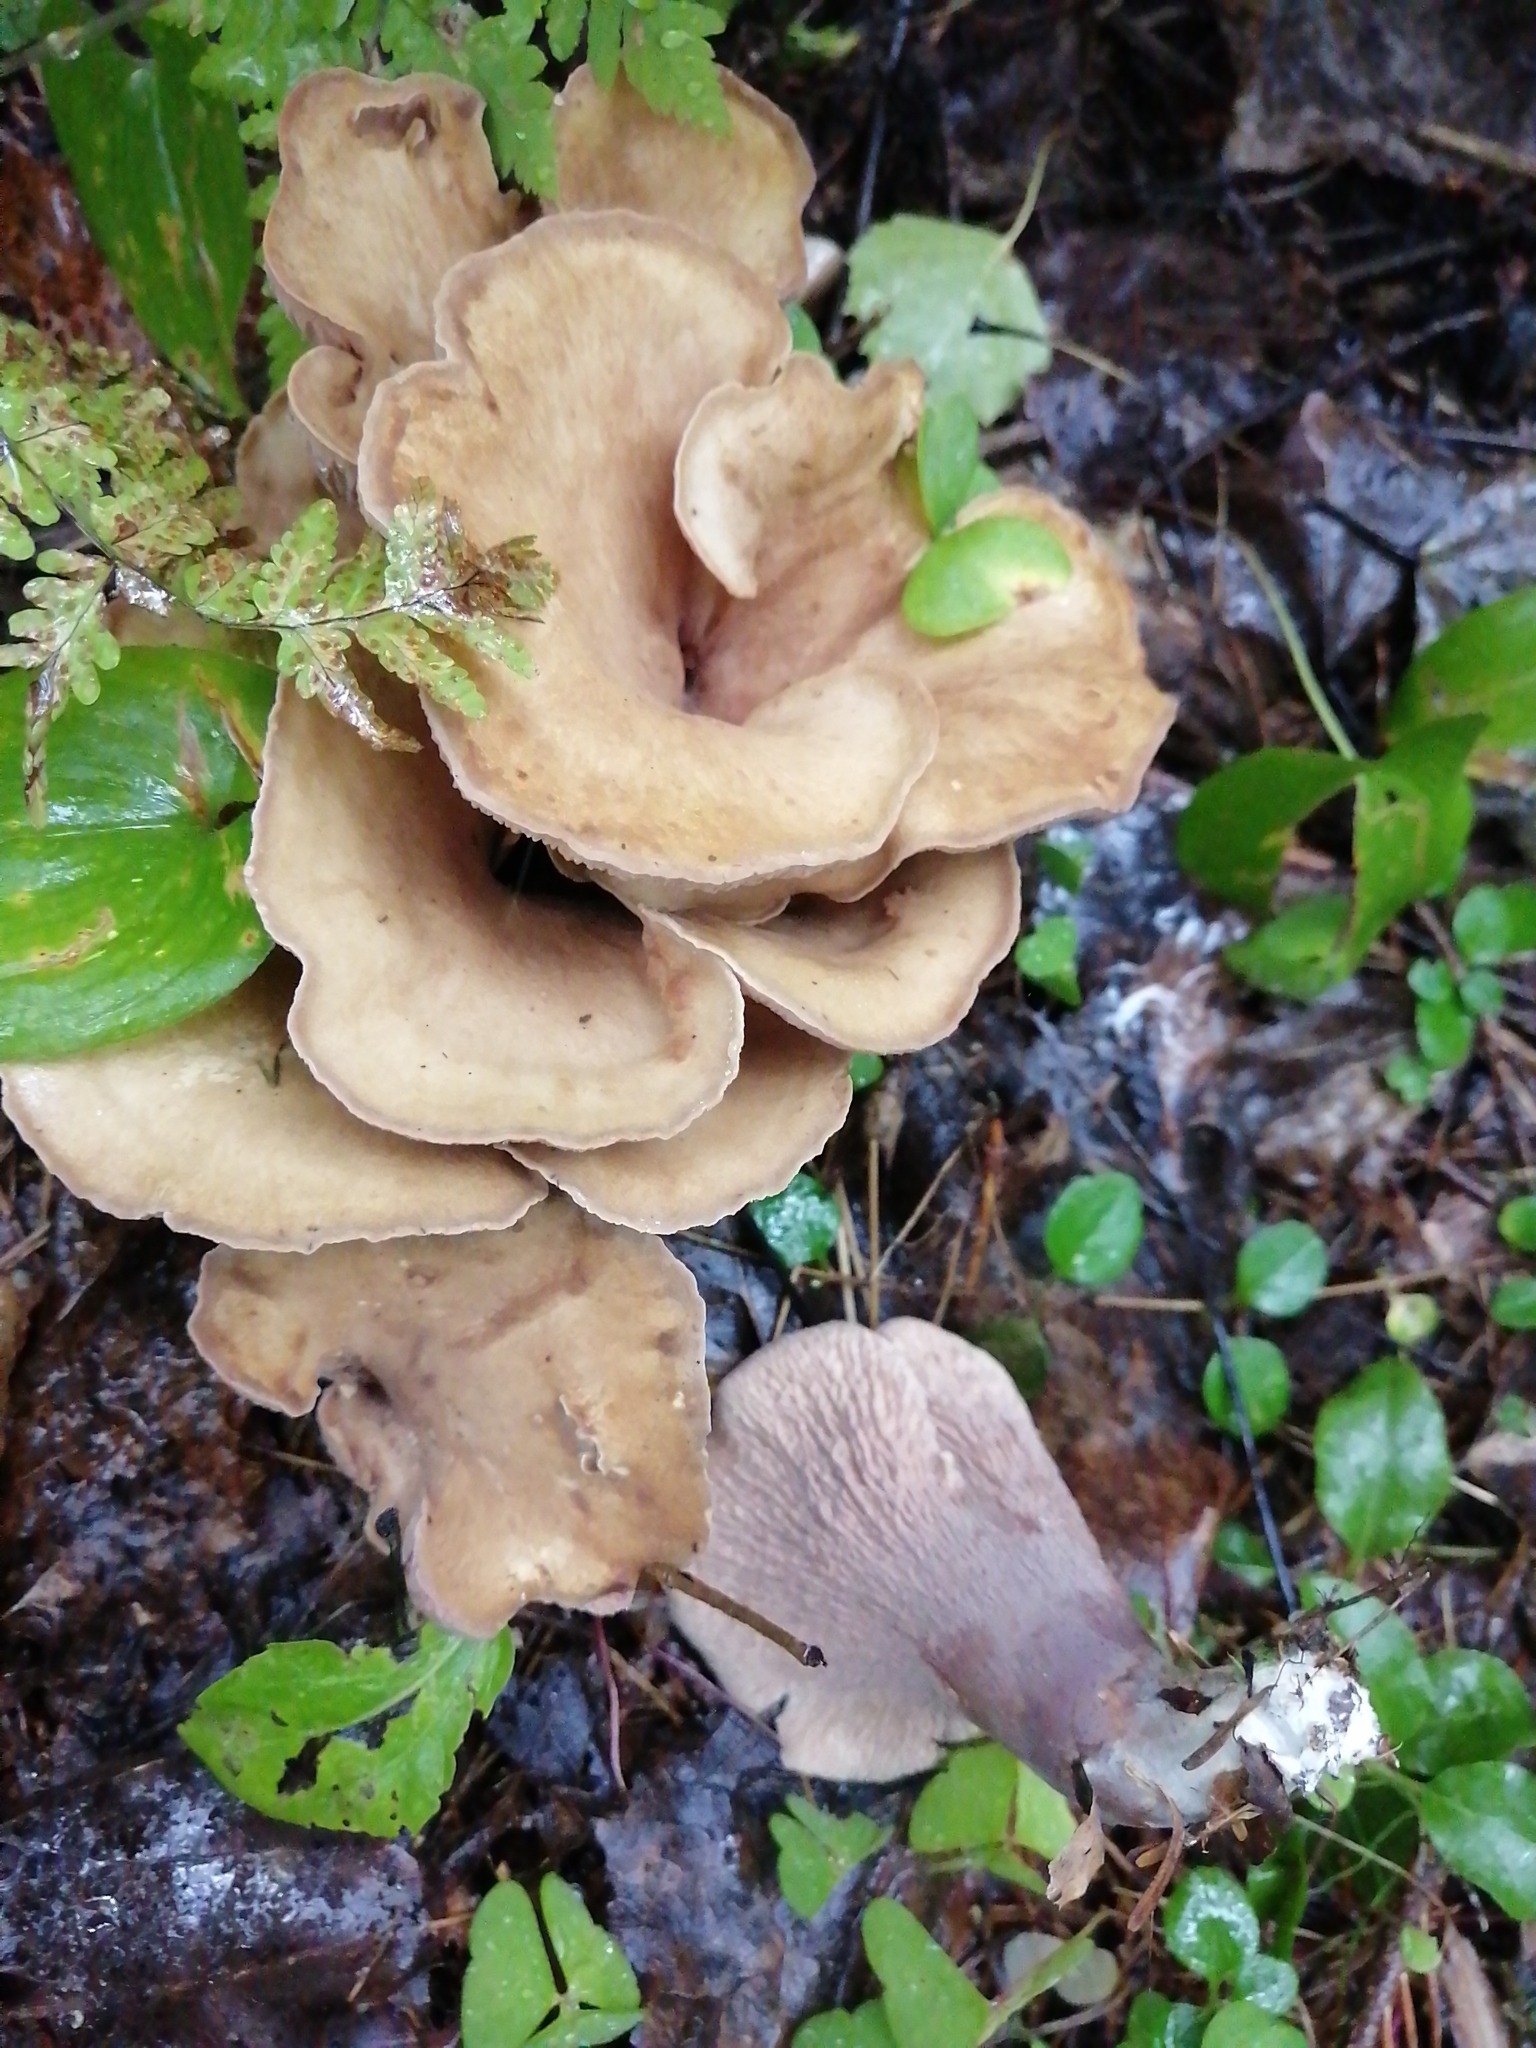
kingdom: Fungi
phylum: Basidiomycota
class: Agaricomycetes
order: Gomphales
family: Gomphaceae
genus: Gomphus
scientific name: Gomphus clavatus
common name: Pig's ear
